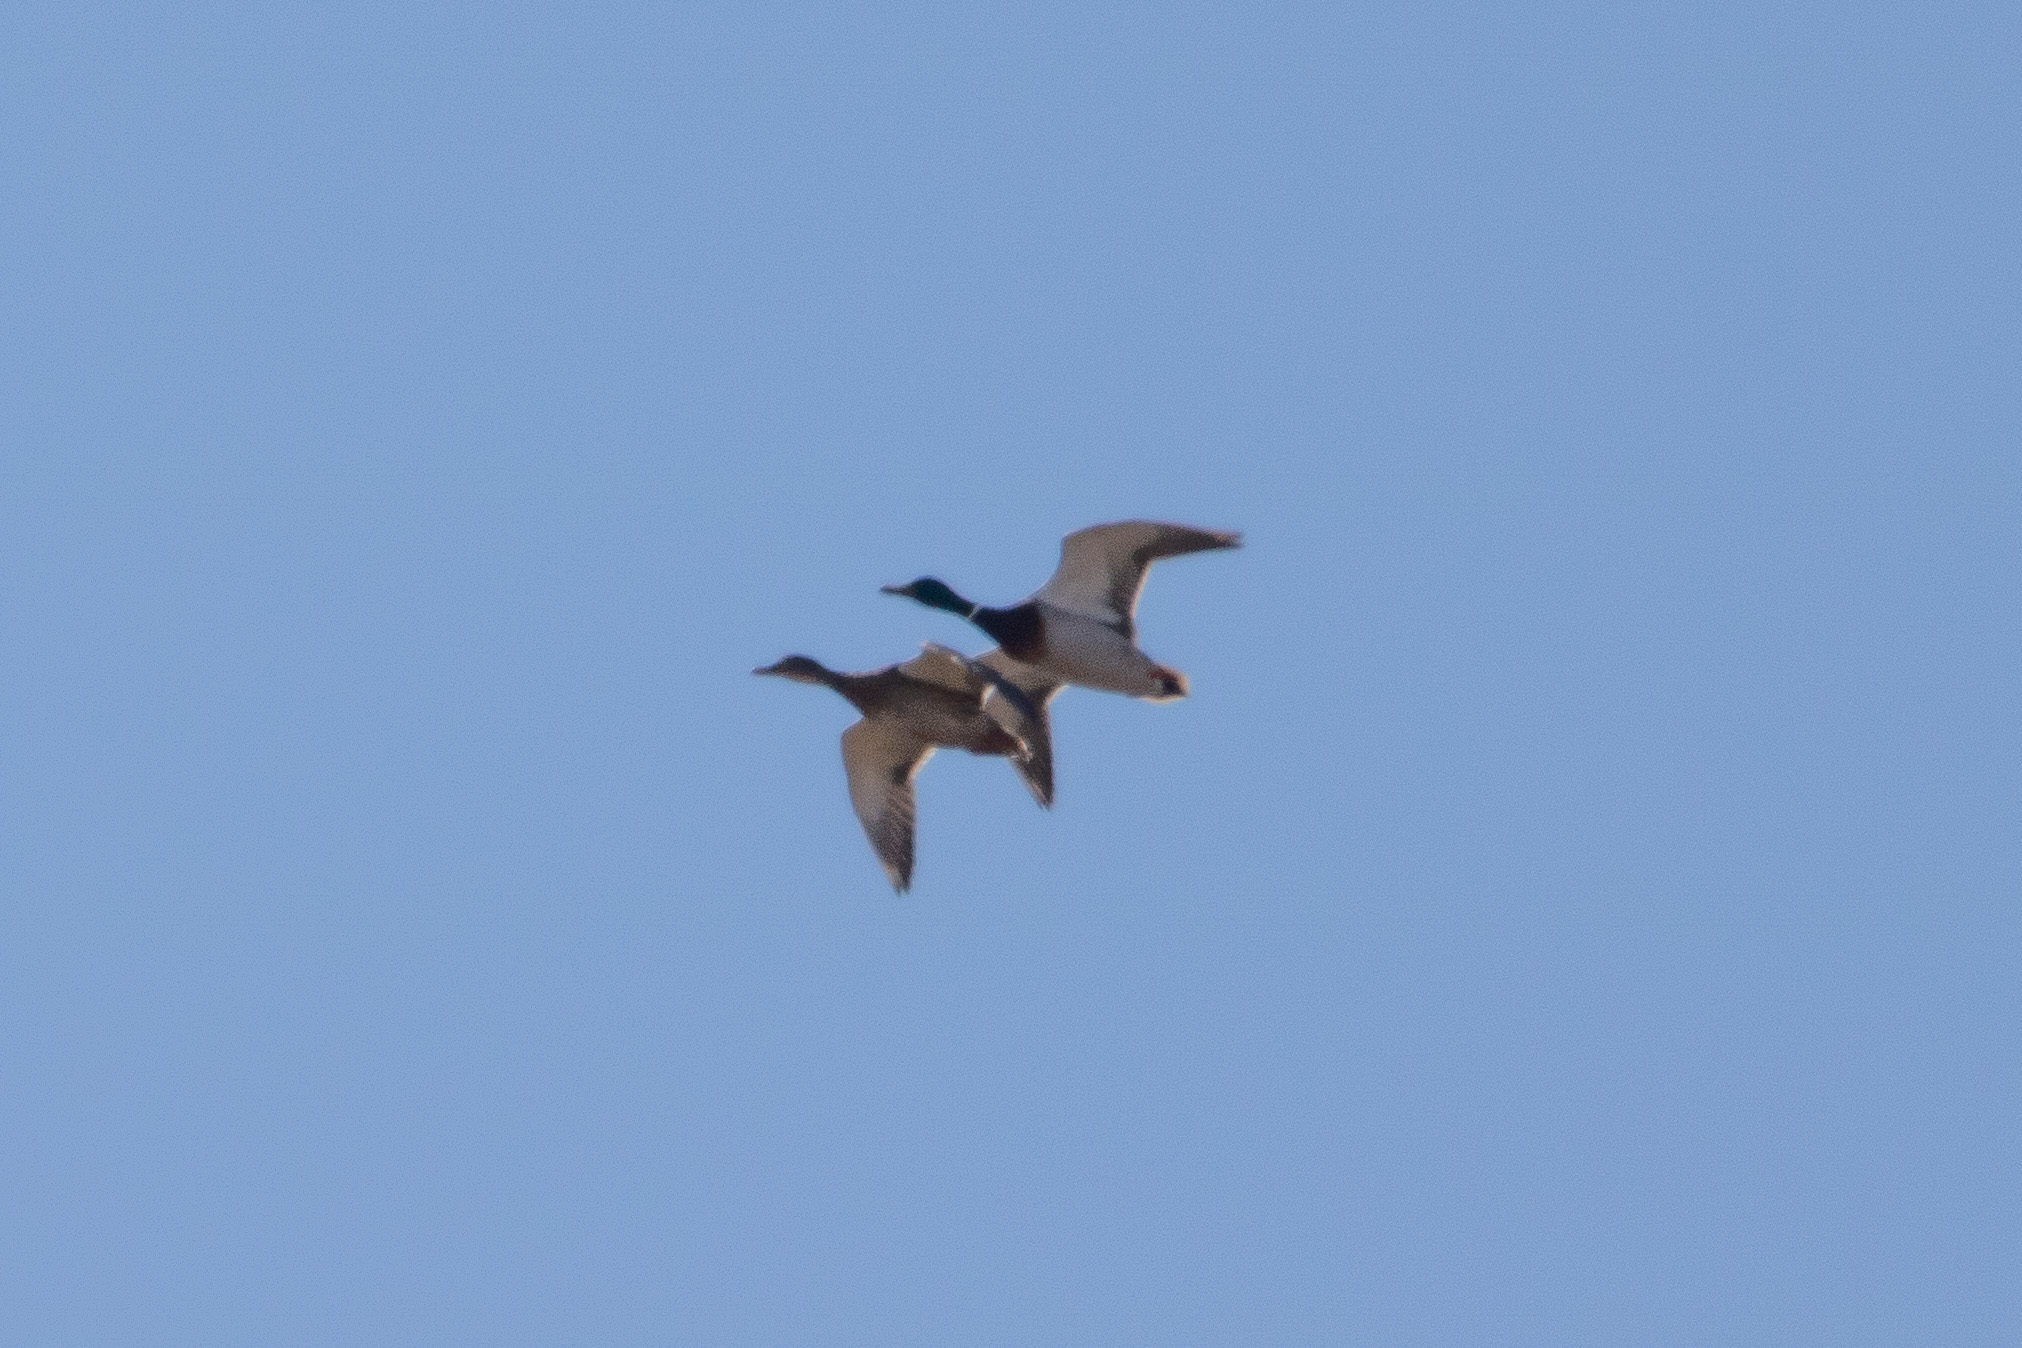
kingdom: Animalia
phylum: Chordata
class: Aves
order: Anseriformes
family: Anatidae
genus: Anas
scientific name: Anas platyrhynchos
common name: Mallard
